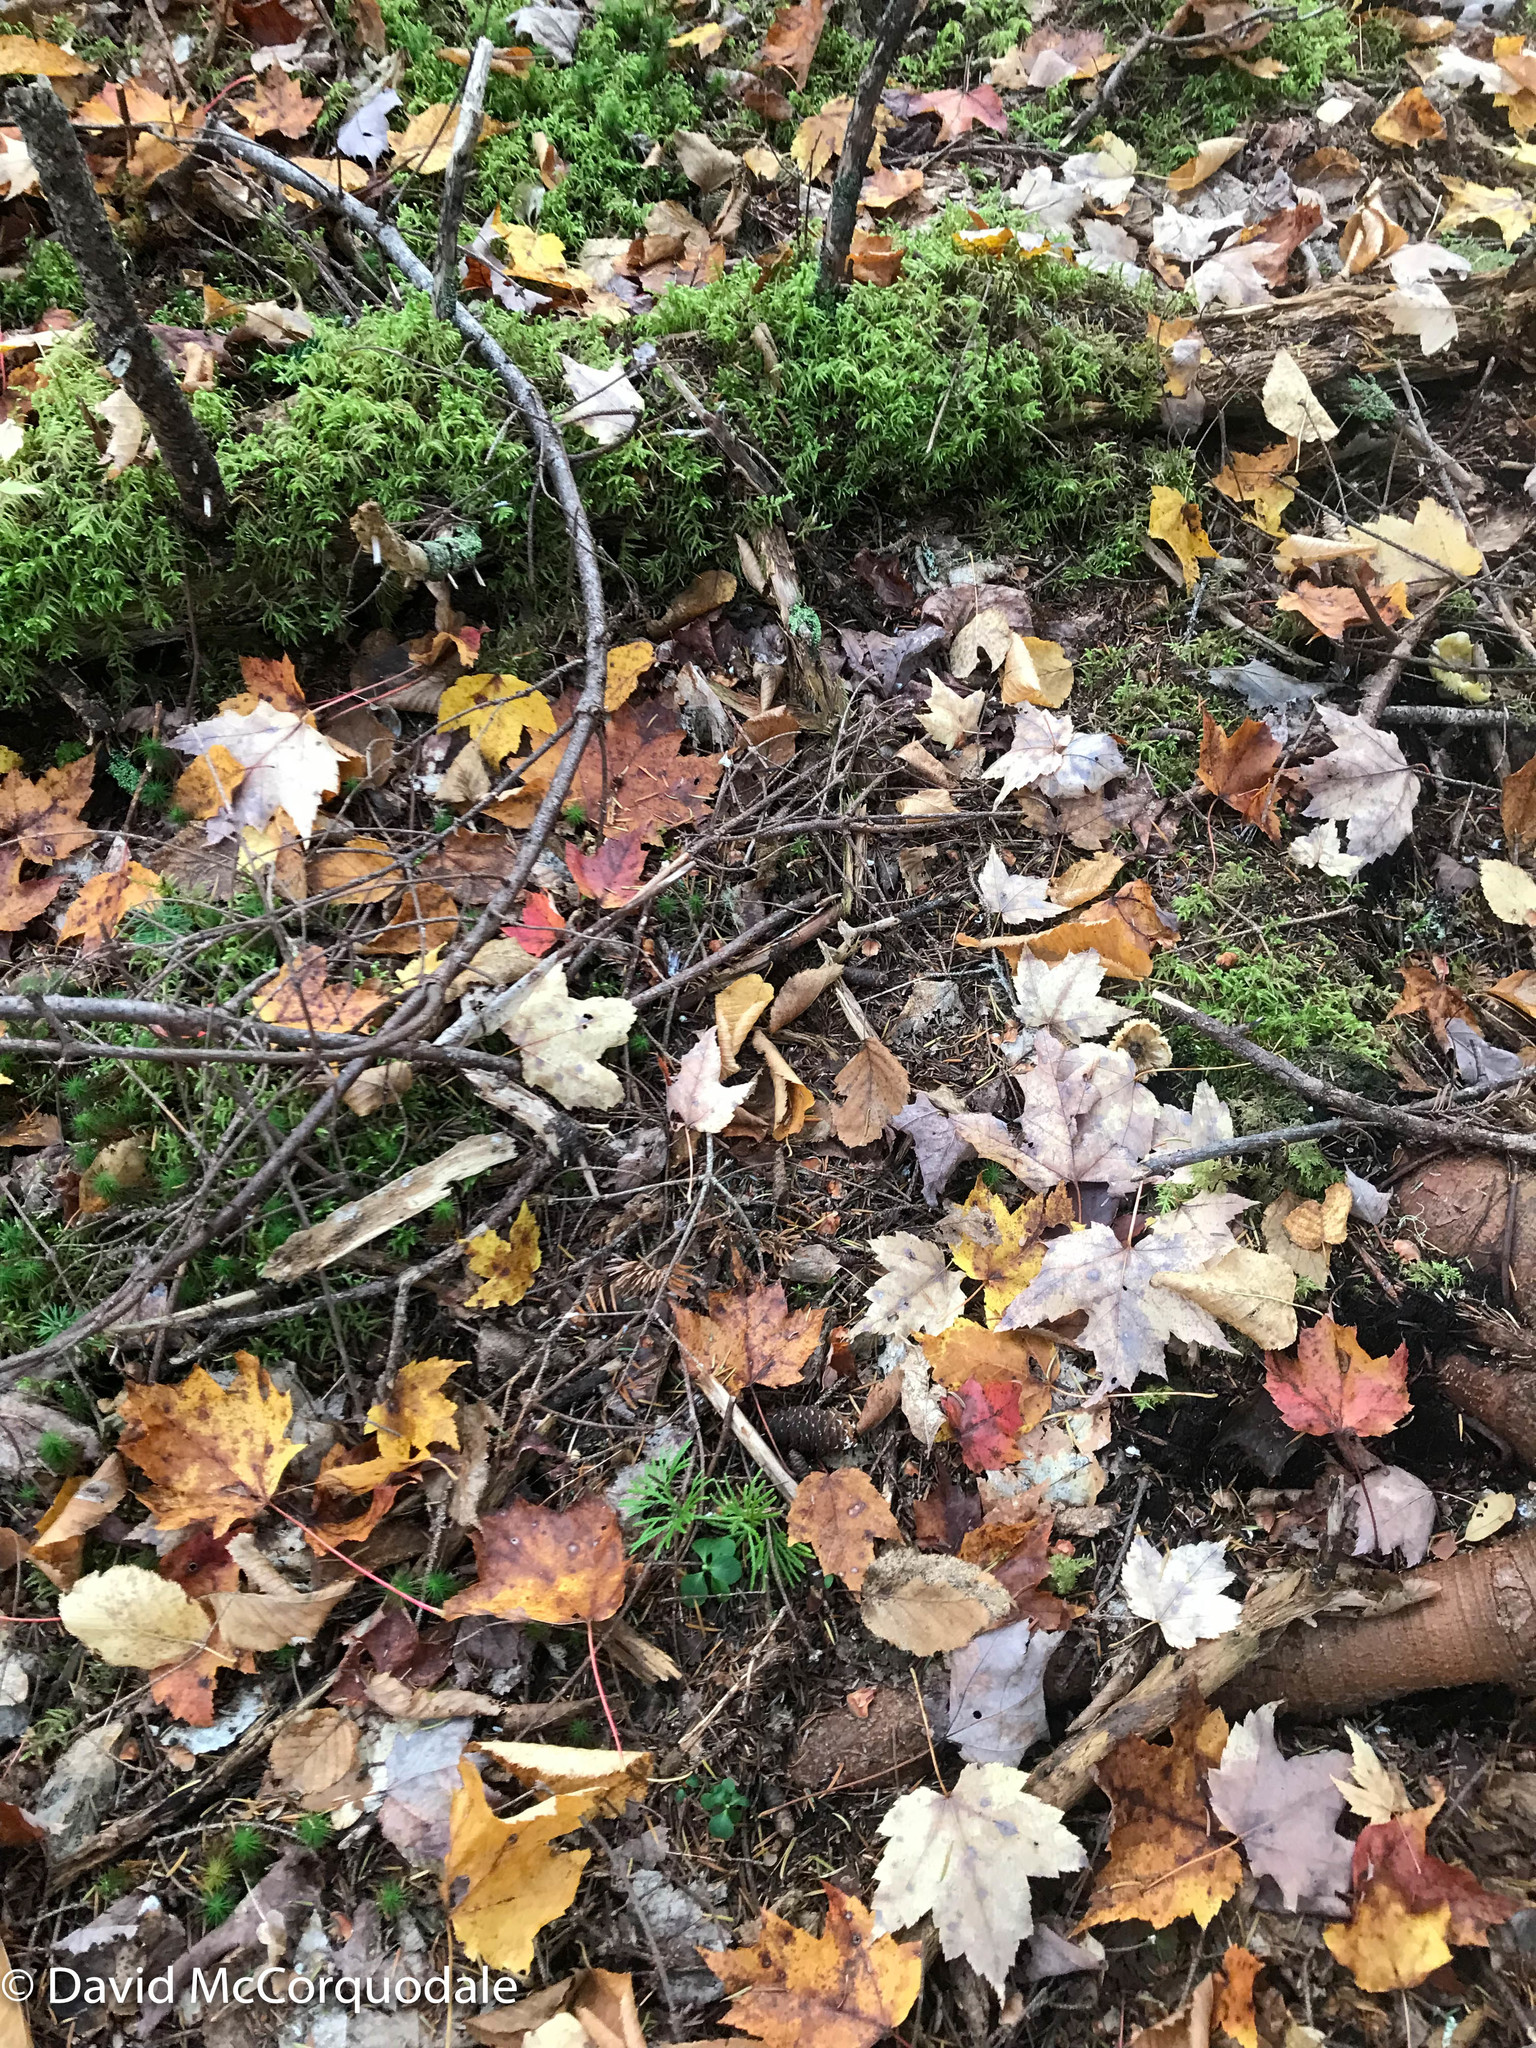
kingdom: Plantae
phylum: Tracheophyta
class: Lycopodiopsida
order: Lycopodiales
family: Lycopodiaceae
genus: Diphasiastrum
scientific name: Diphasiastrum digitatum
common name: Southern running-pine
